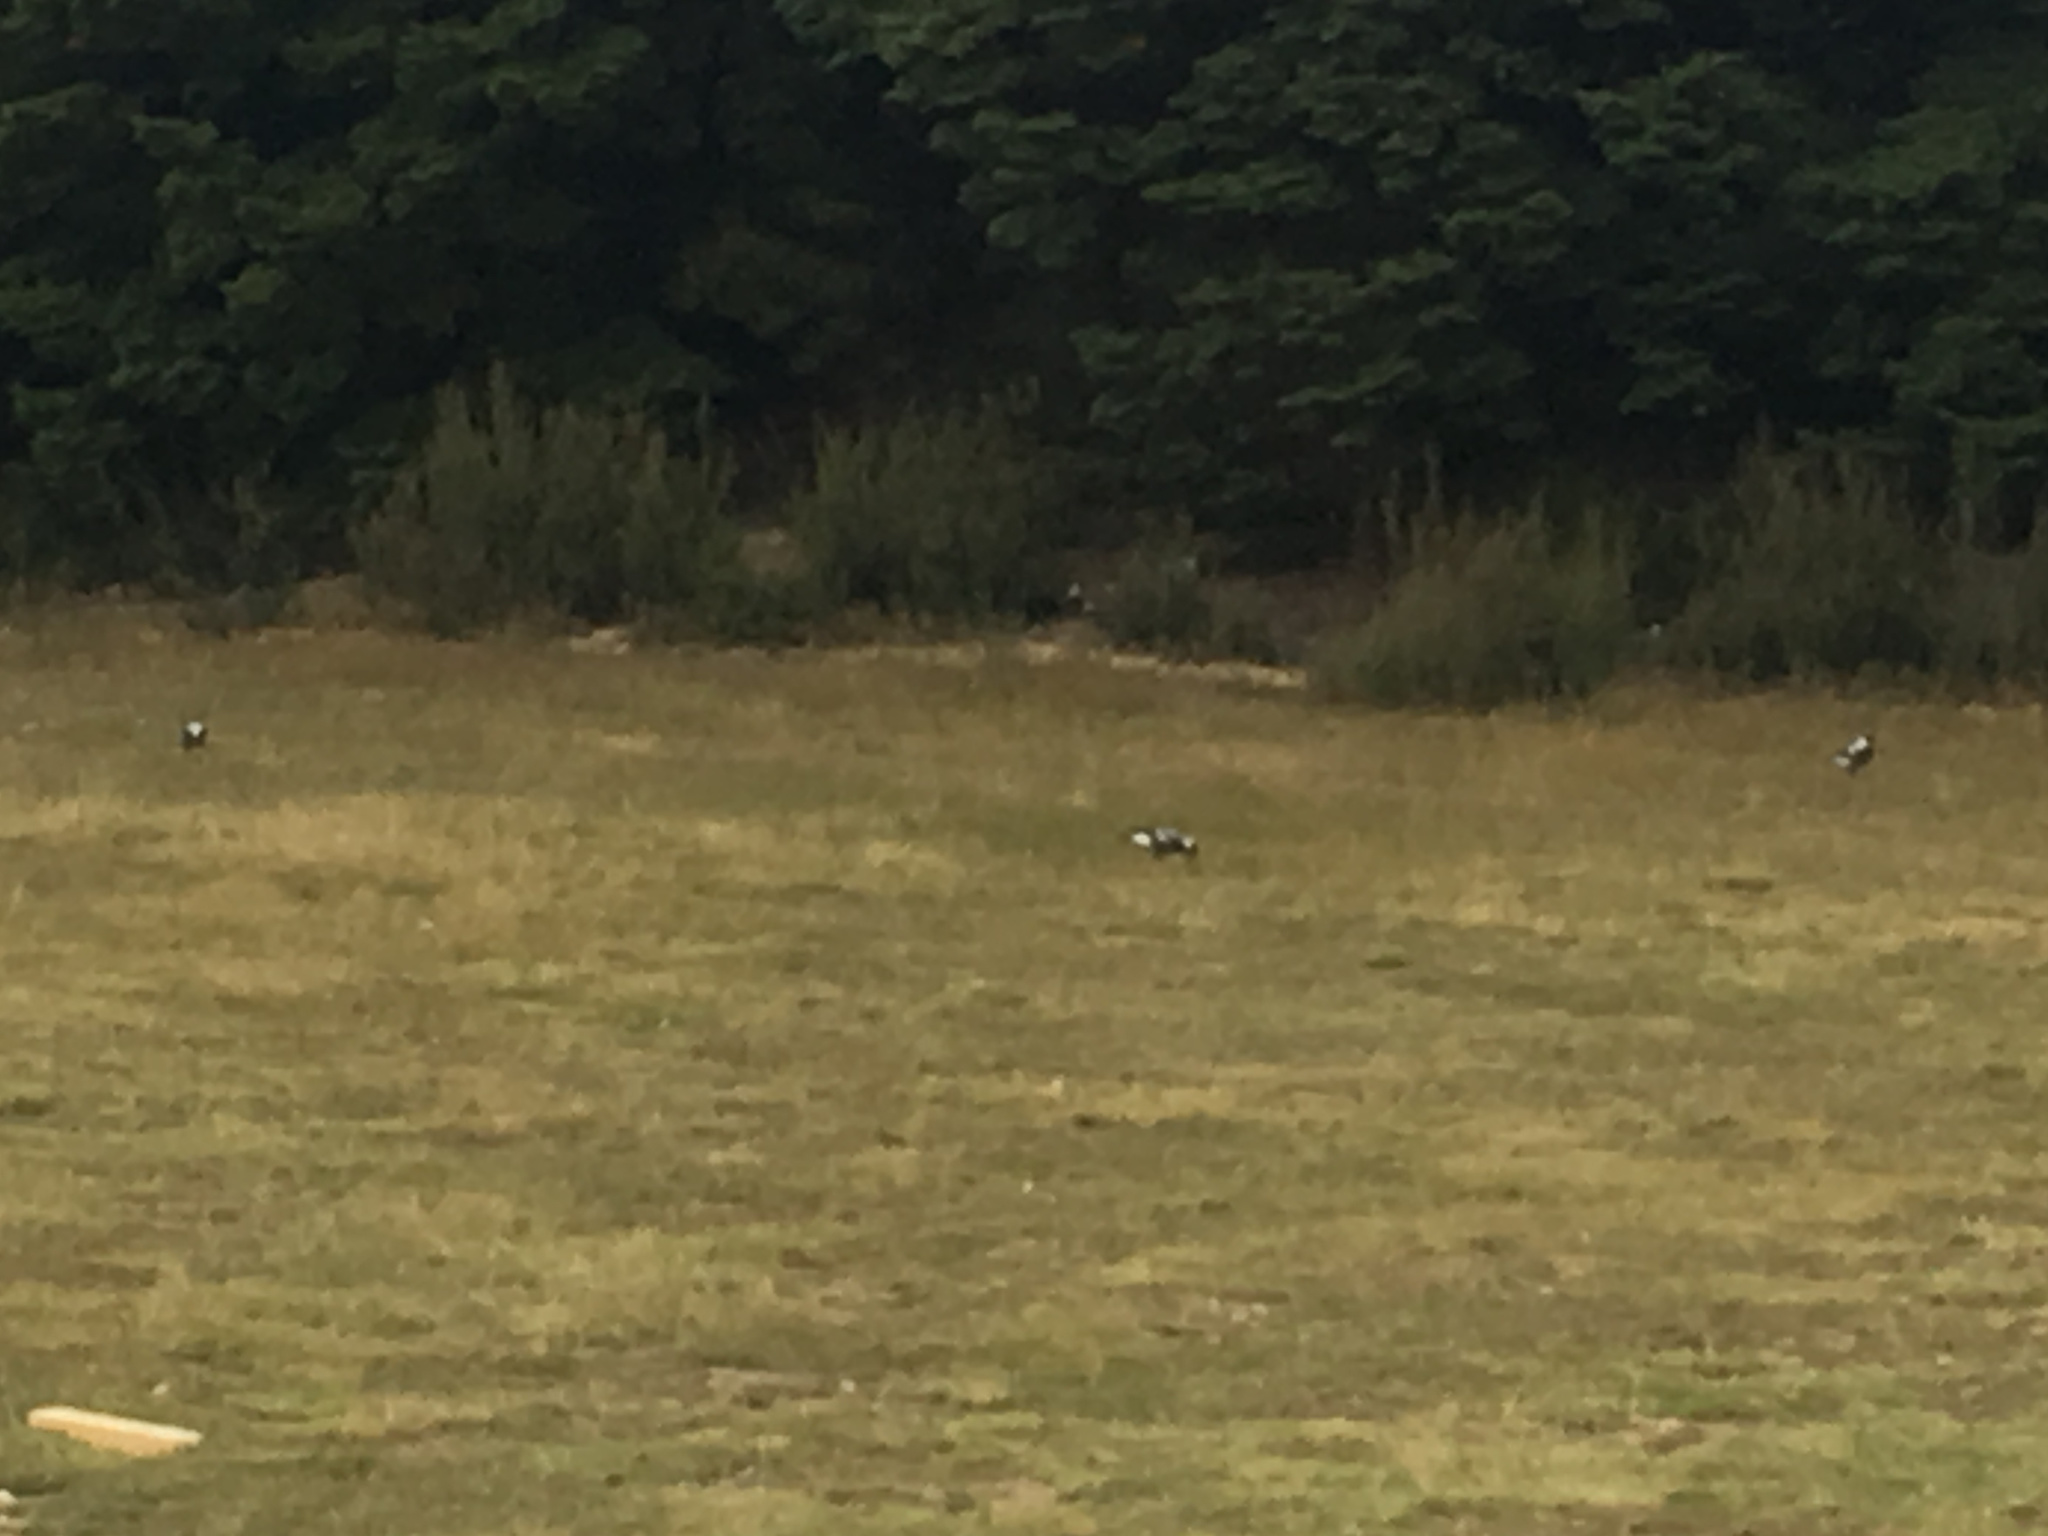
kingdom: Animalia
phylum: Chordata
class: Aves
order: Passeriformes
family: Cracticidae
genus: Gymnorhina
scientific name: Gymnorhina tibicen
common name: Australian magpie
